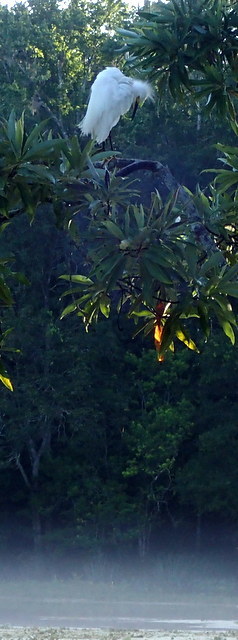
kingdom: Animalia
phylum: Chordata
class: Aves
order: Pelecaniformes
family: Ardeidae
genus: Egretta
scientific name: Egretta thula
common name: Snowy egret
